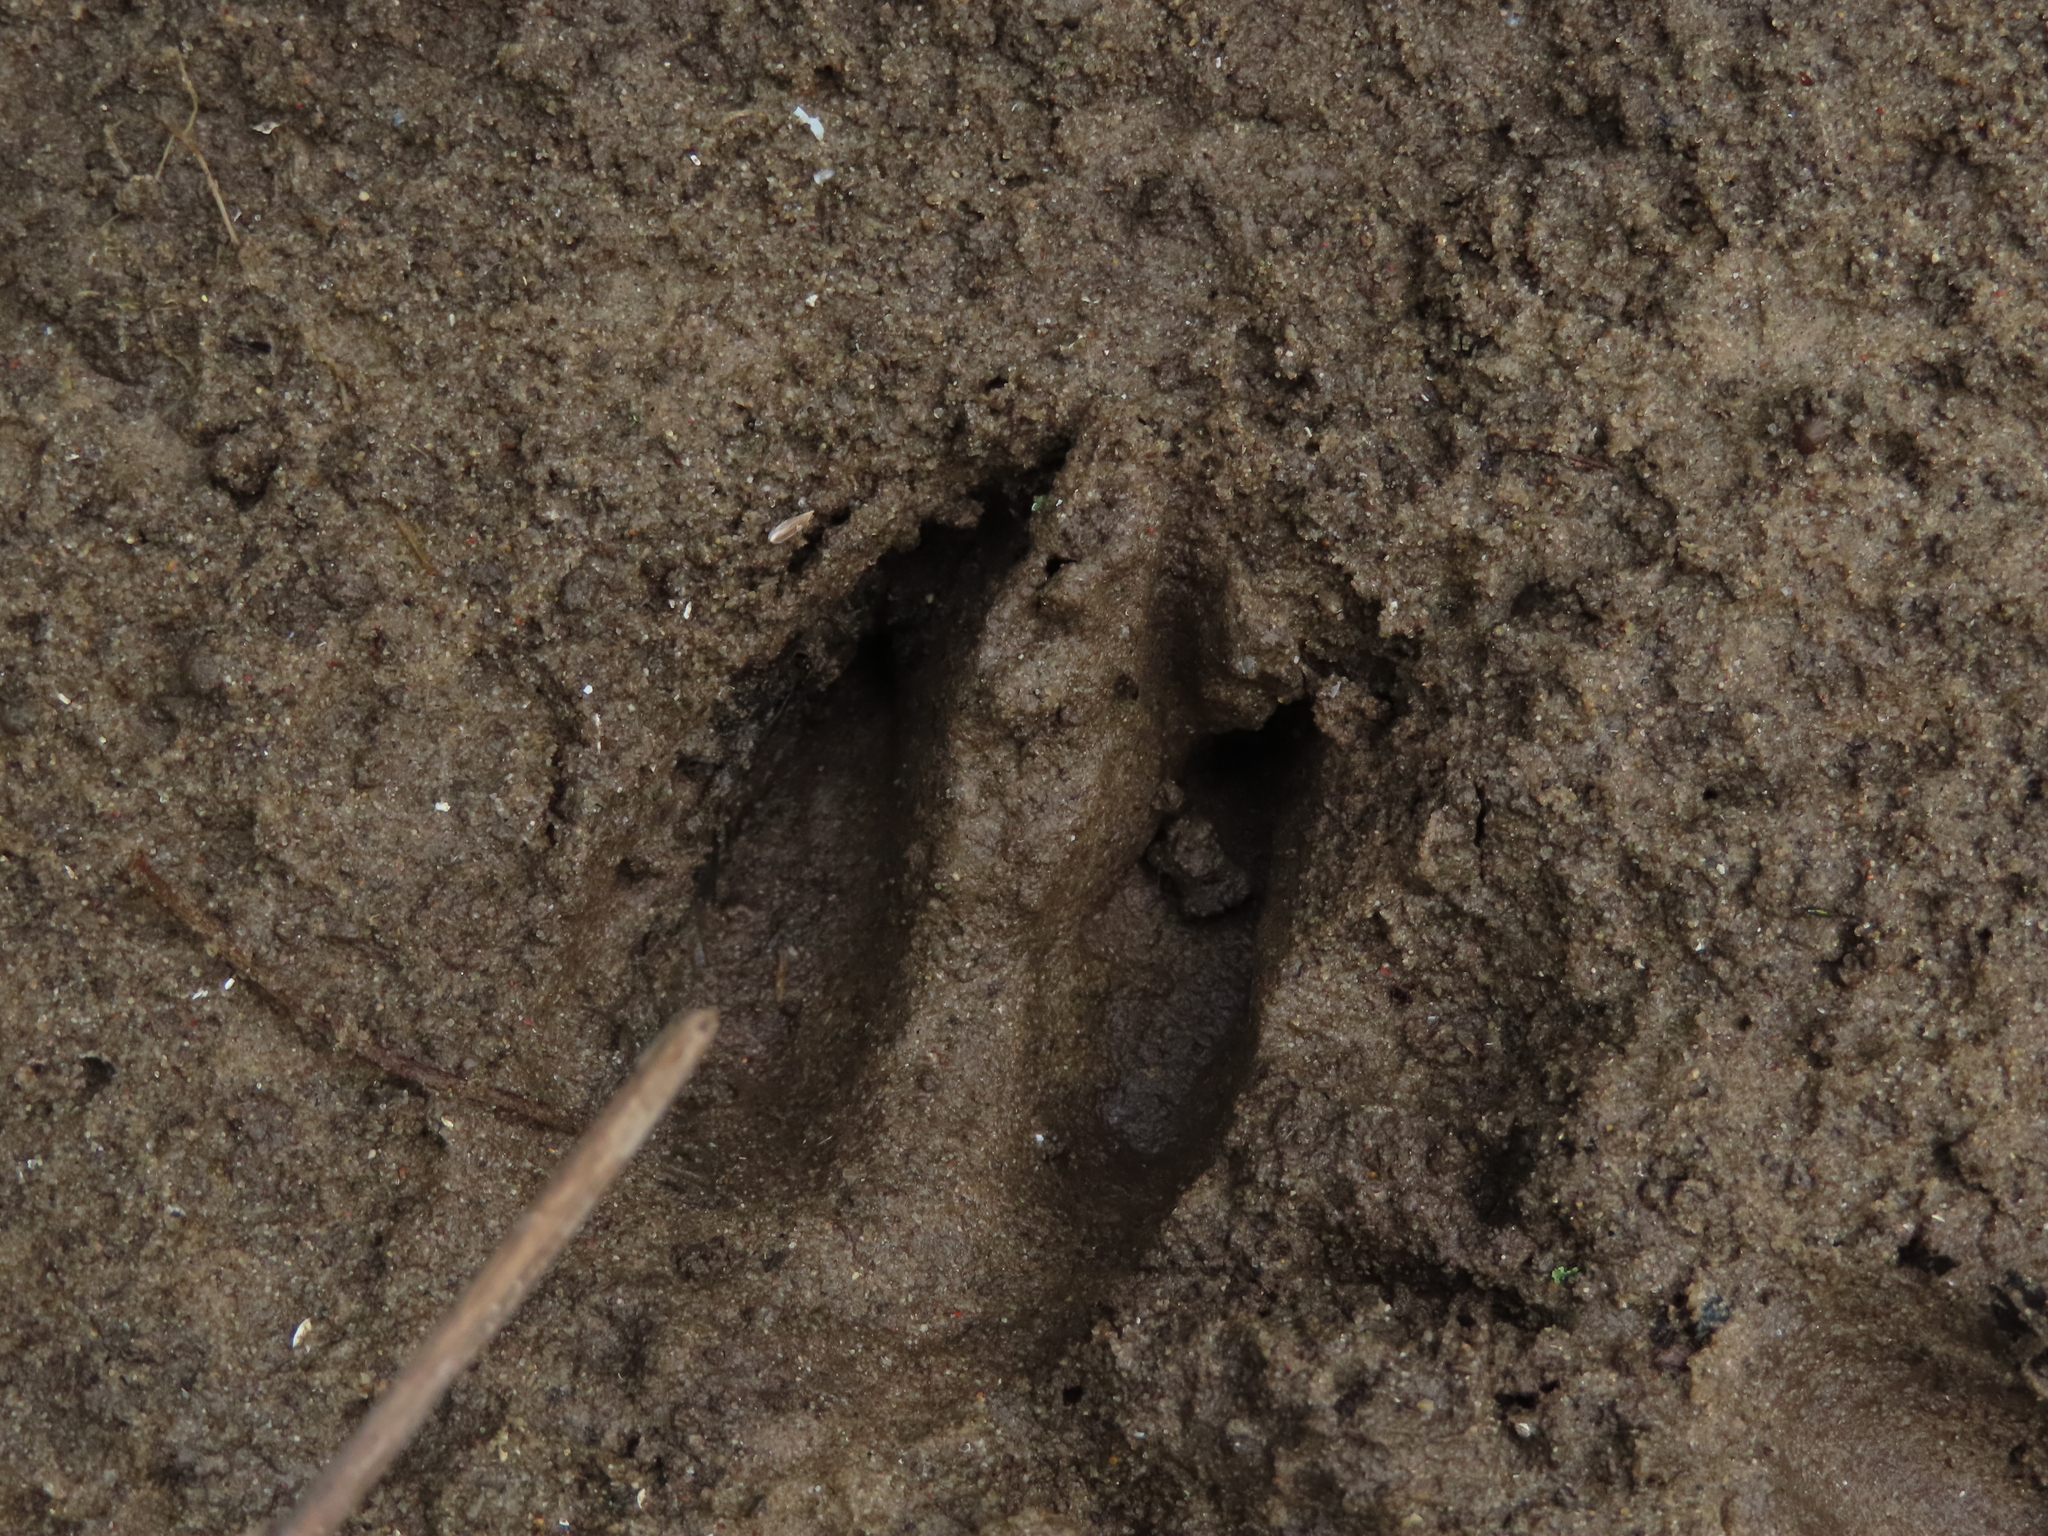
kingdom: Animalia
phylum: Chordata
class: Mammalia
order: Artiodactyla
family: Cervidae
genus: Odocoileus
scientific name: Odocoileus virginianus
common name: White-tailed deer
